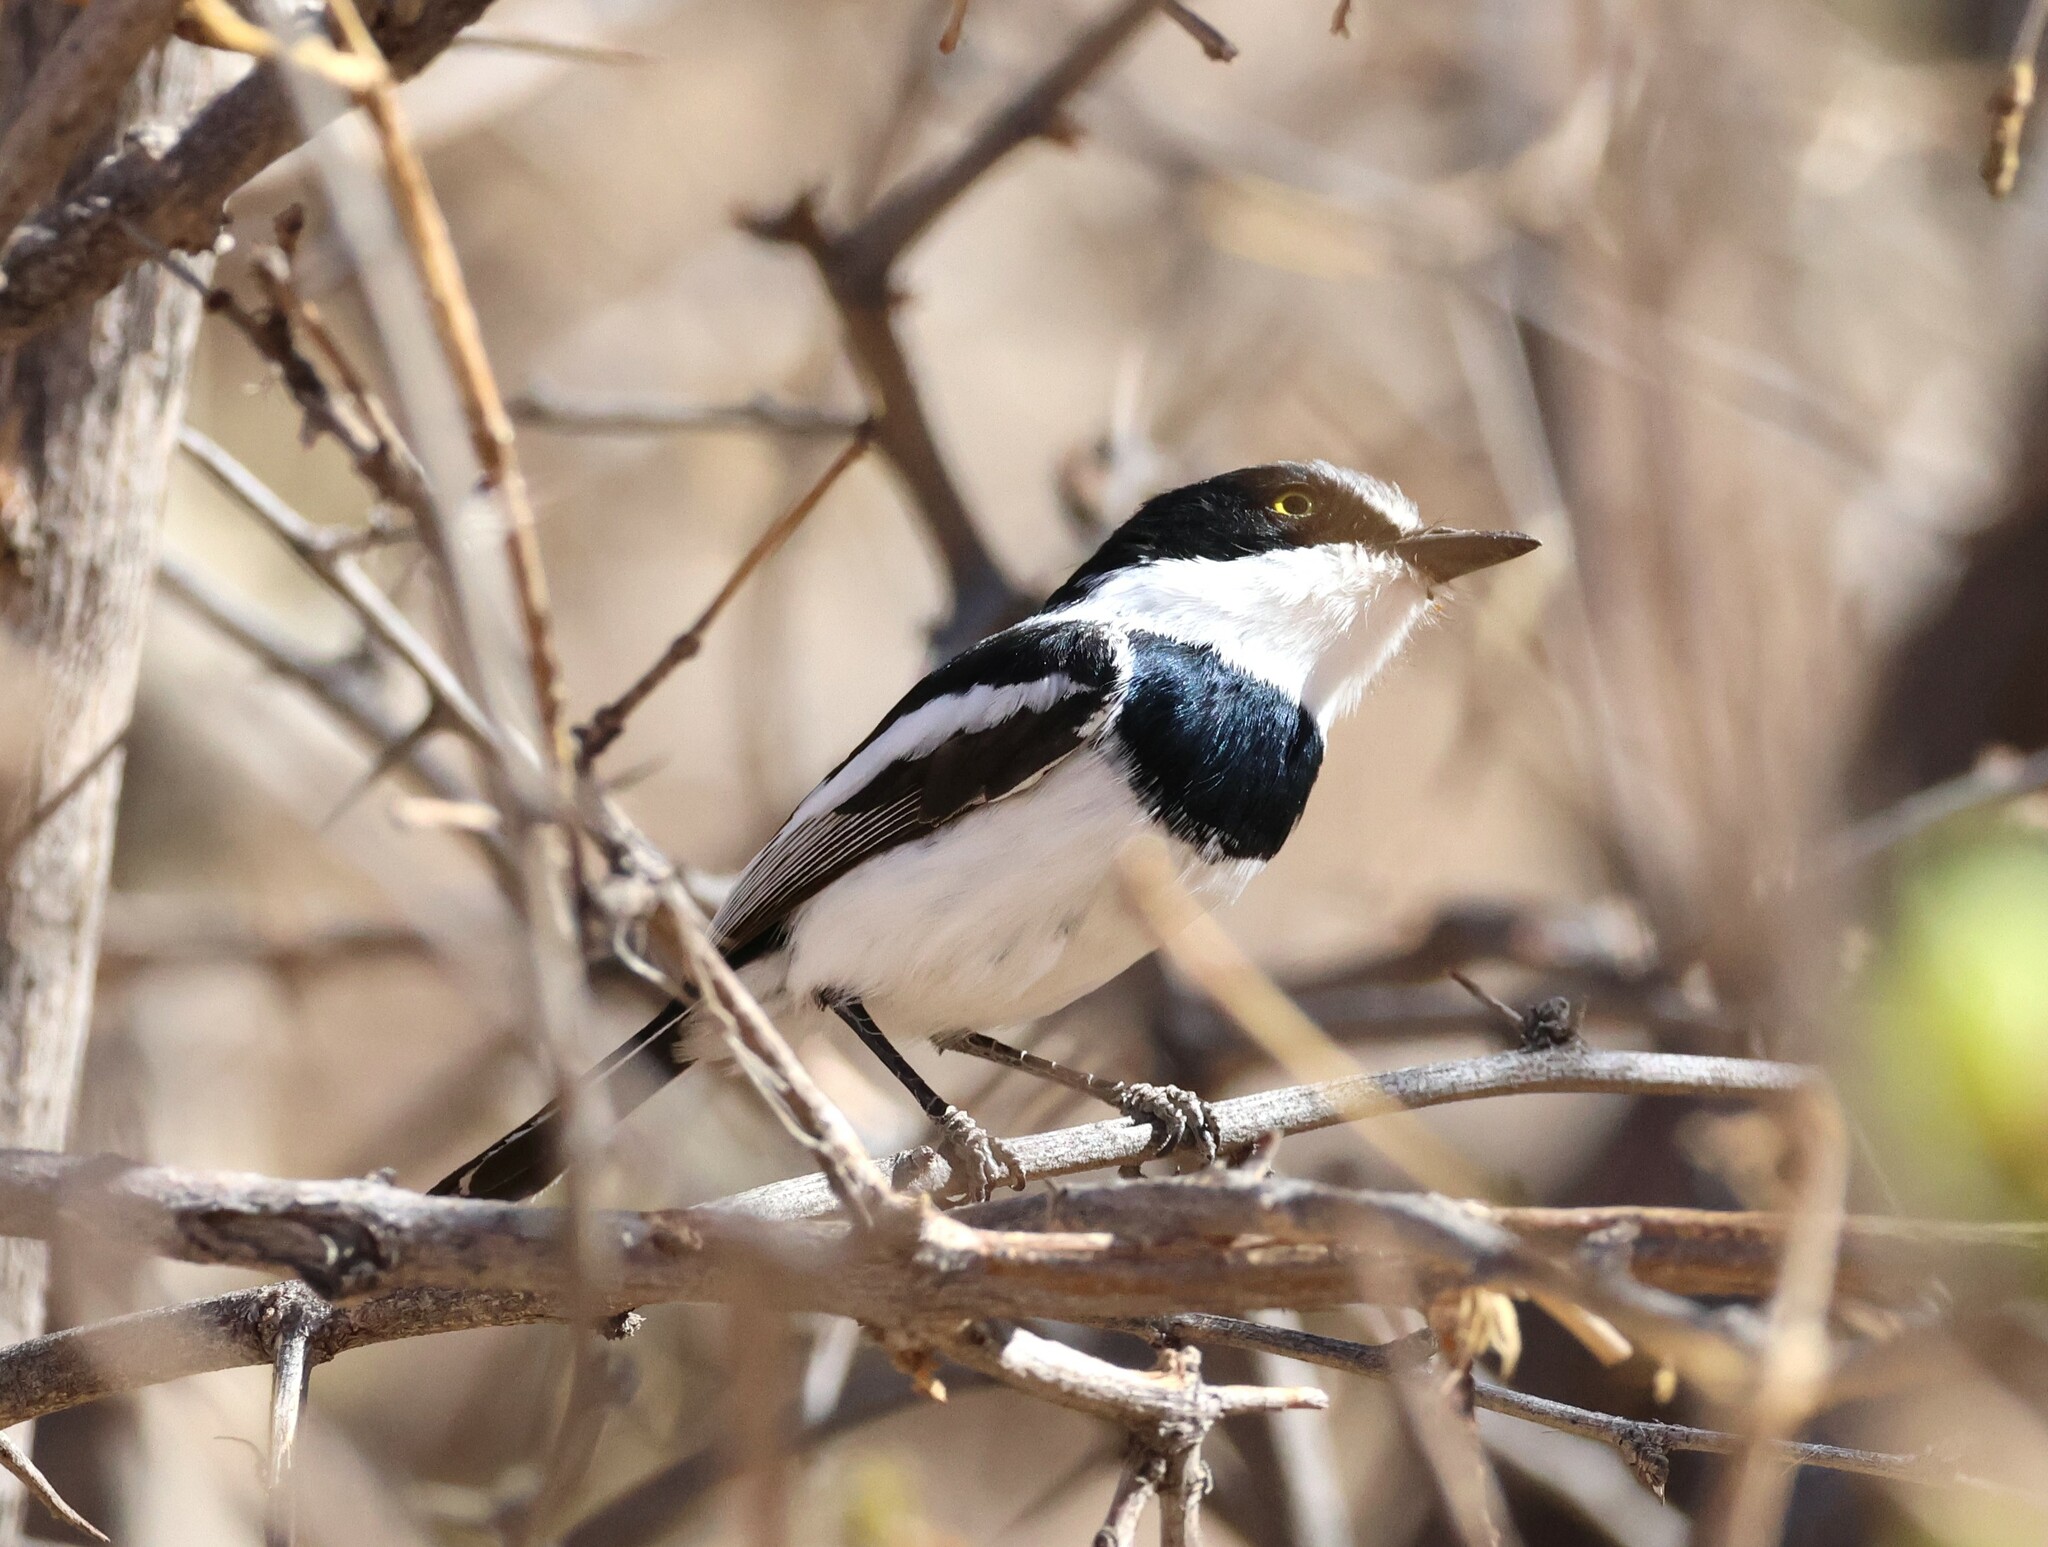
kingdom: Animalia
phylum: Chordata
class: Aves
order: Passeriformes
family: Platysteiridae
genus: Batis
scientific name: Batis pririt
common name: Pririt batis
